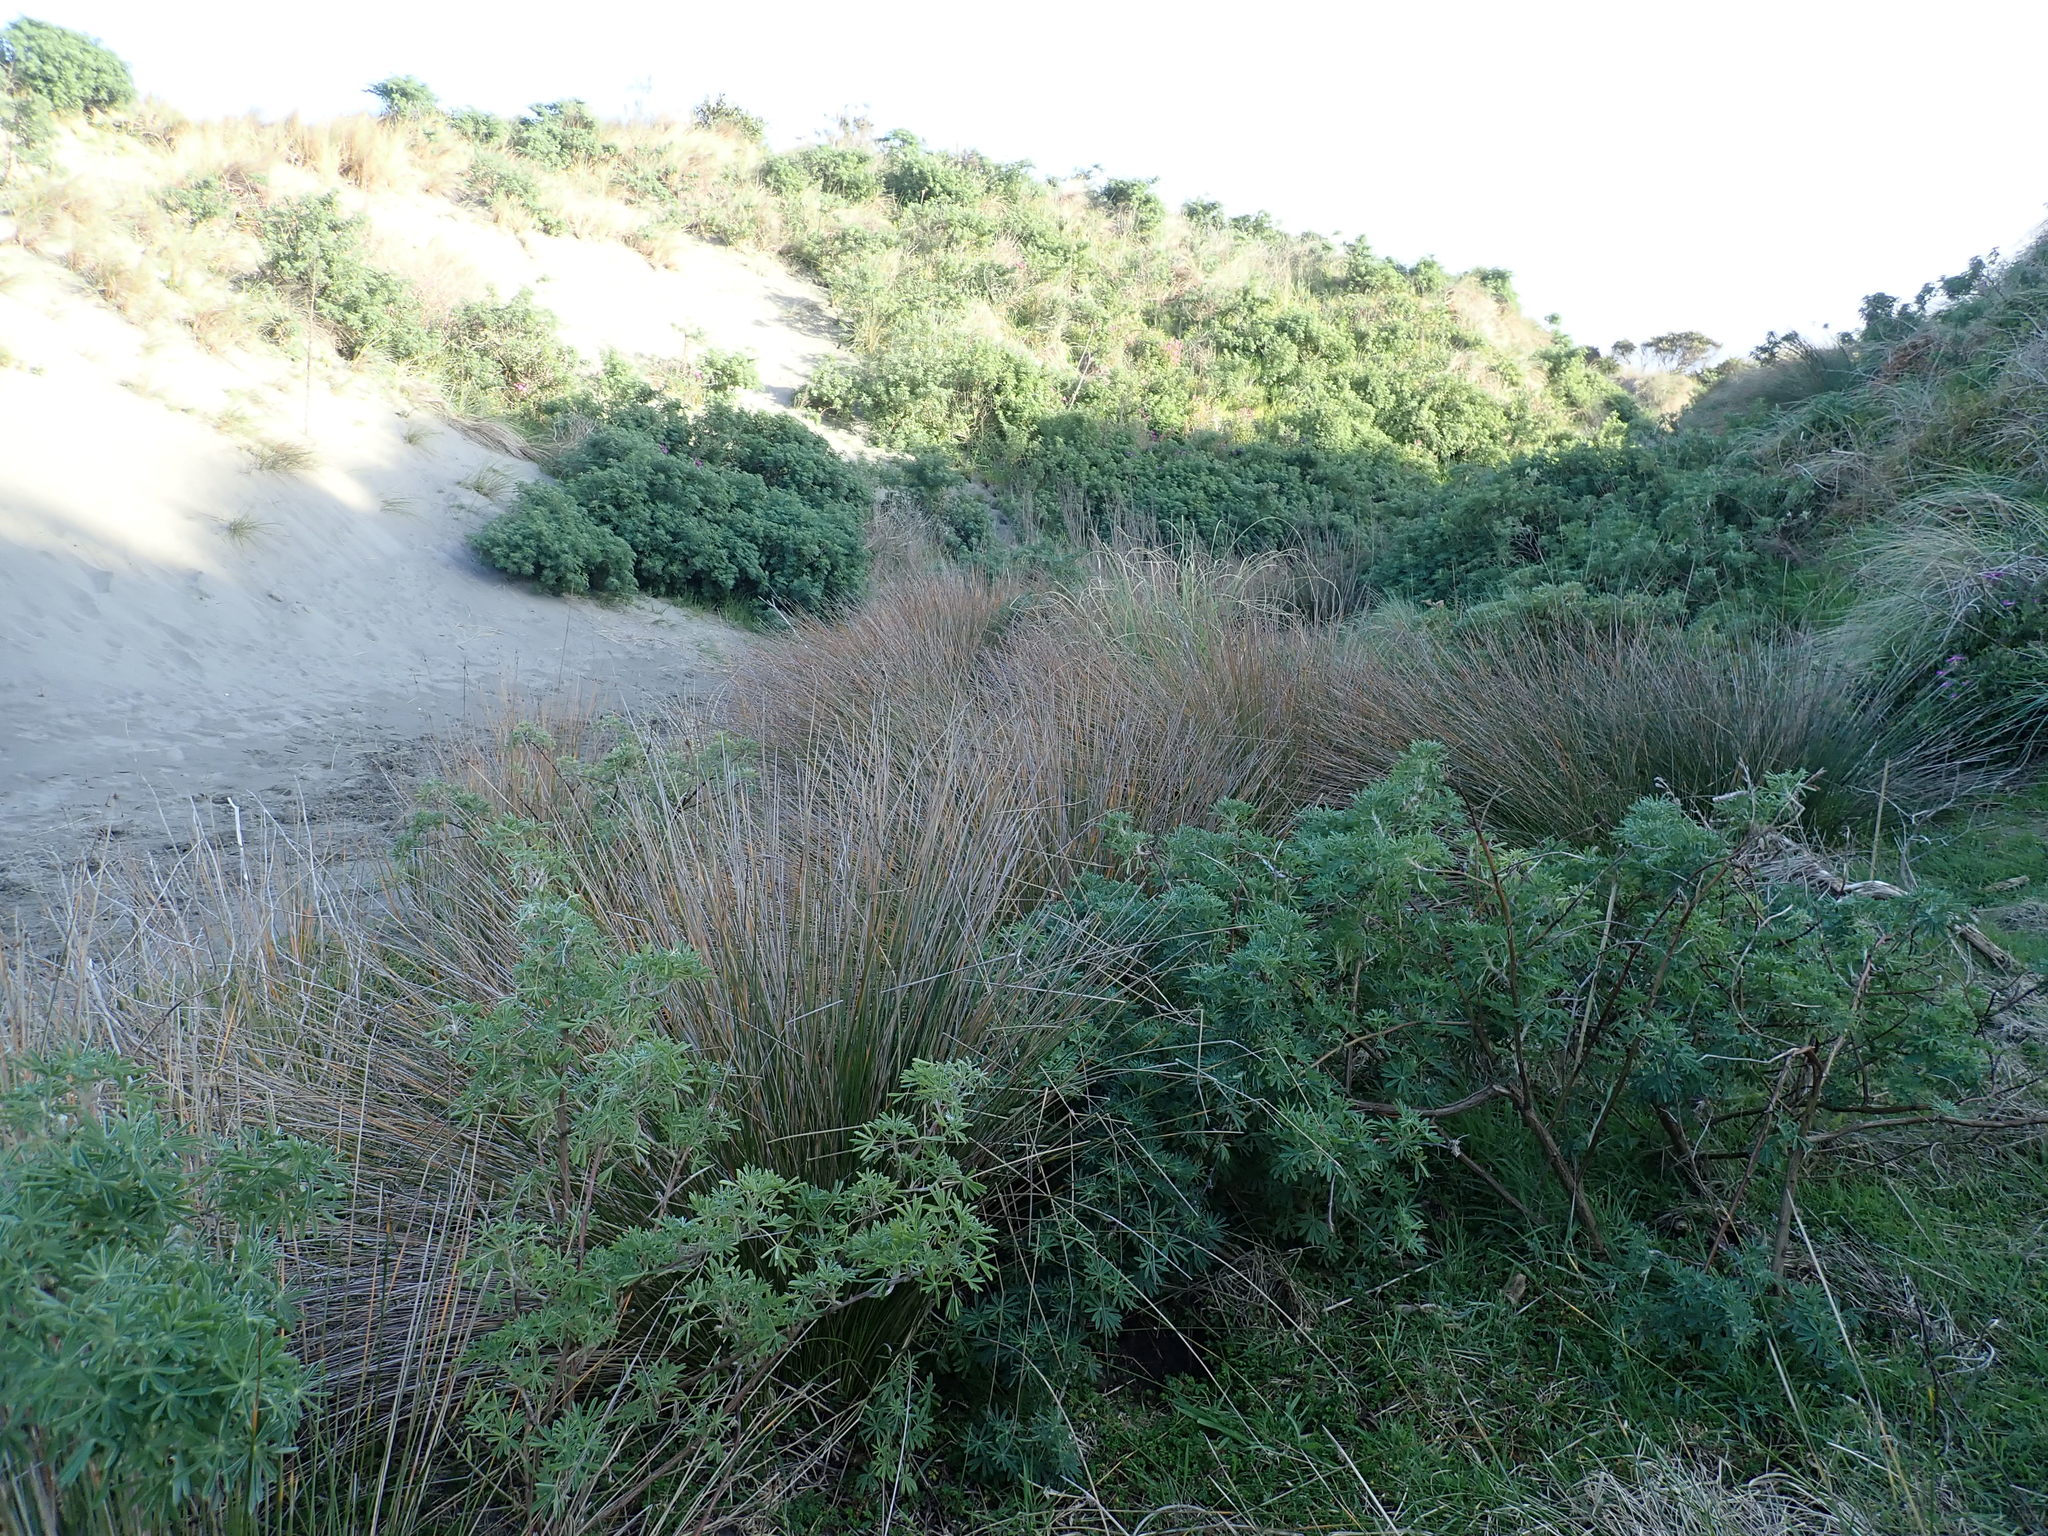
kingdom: Plantae
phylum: Tracheophyta
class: Liliopsida
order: Poales
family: Cyperaceae
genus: Ficinia
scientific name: Ficinia nodosa
